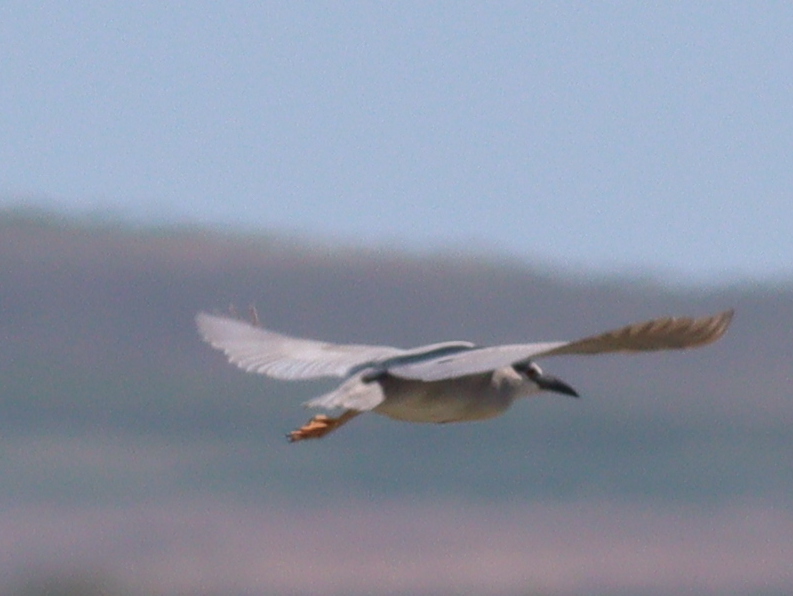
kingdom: Animalia
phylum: Chordata
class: Aves
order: Pelecaniformes
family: Ardeidae
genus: Nycticorax
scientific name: Nycticorax nycticorax
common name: Black-crowned night heron
